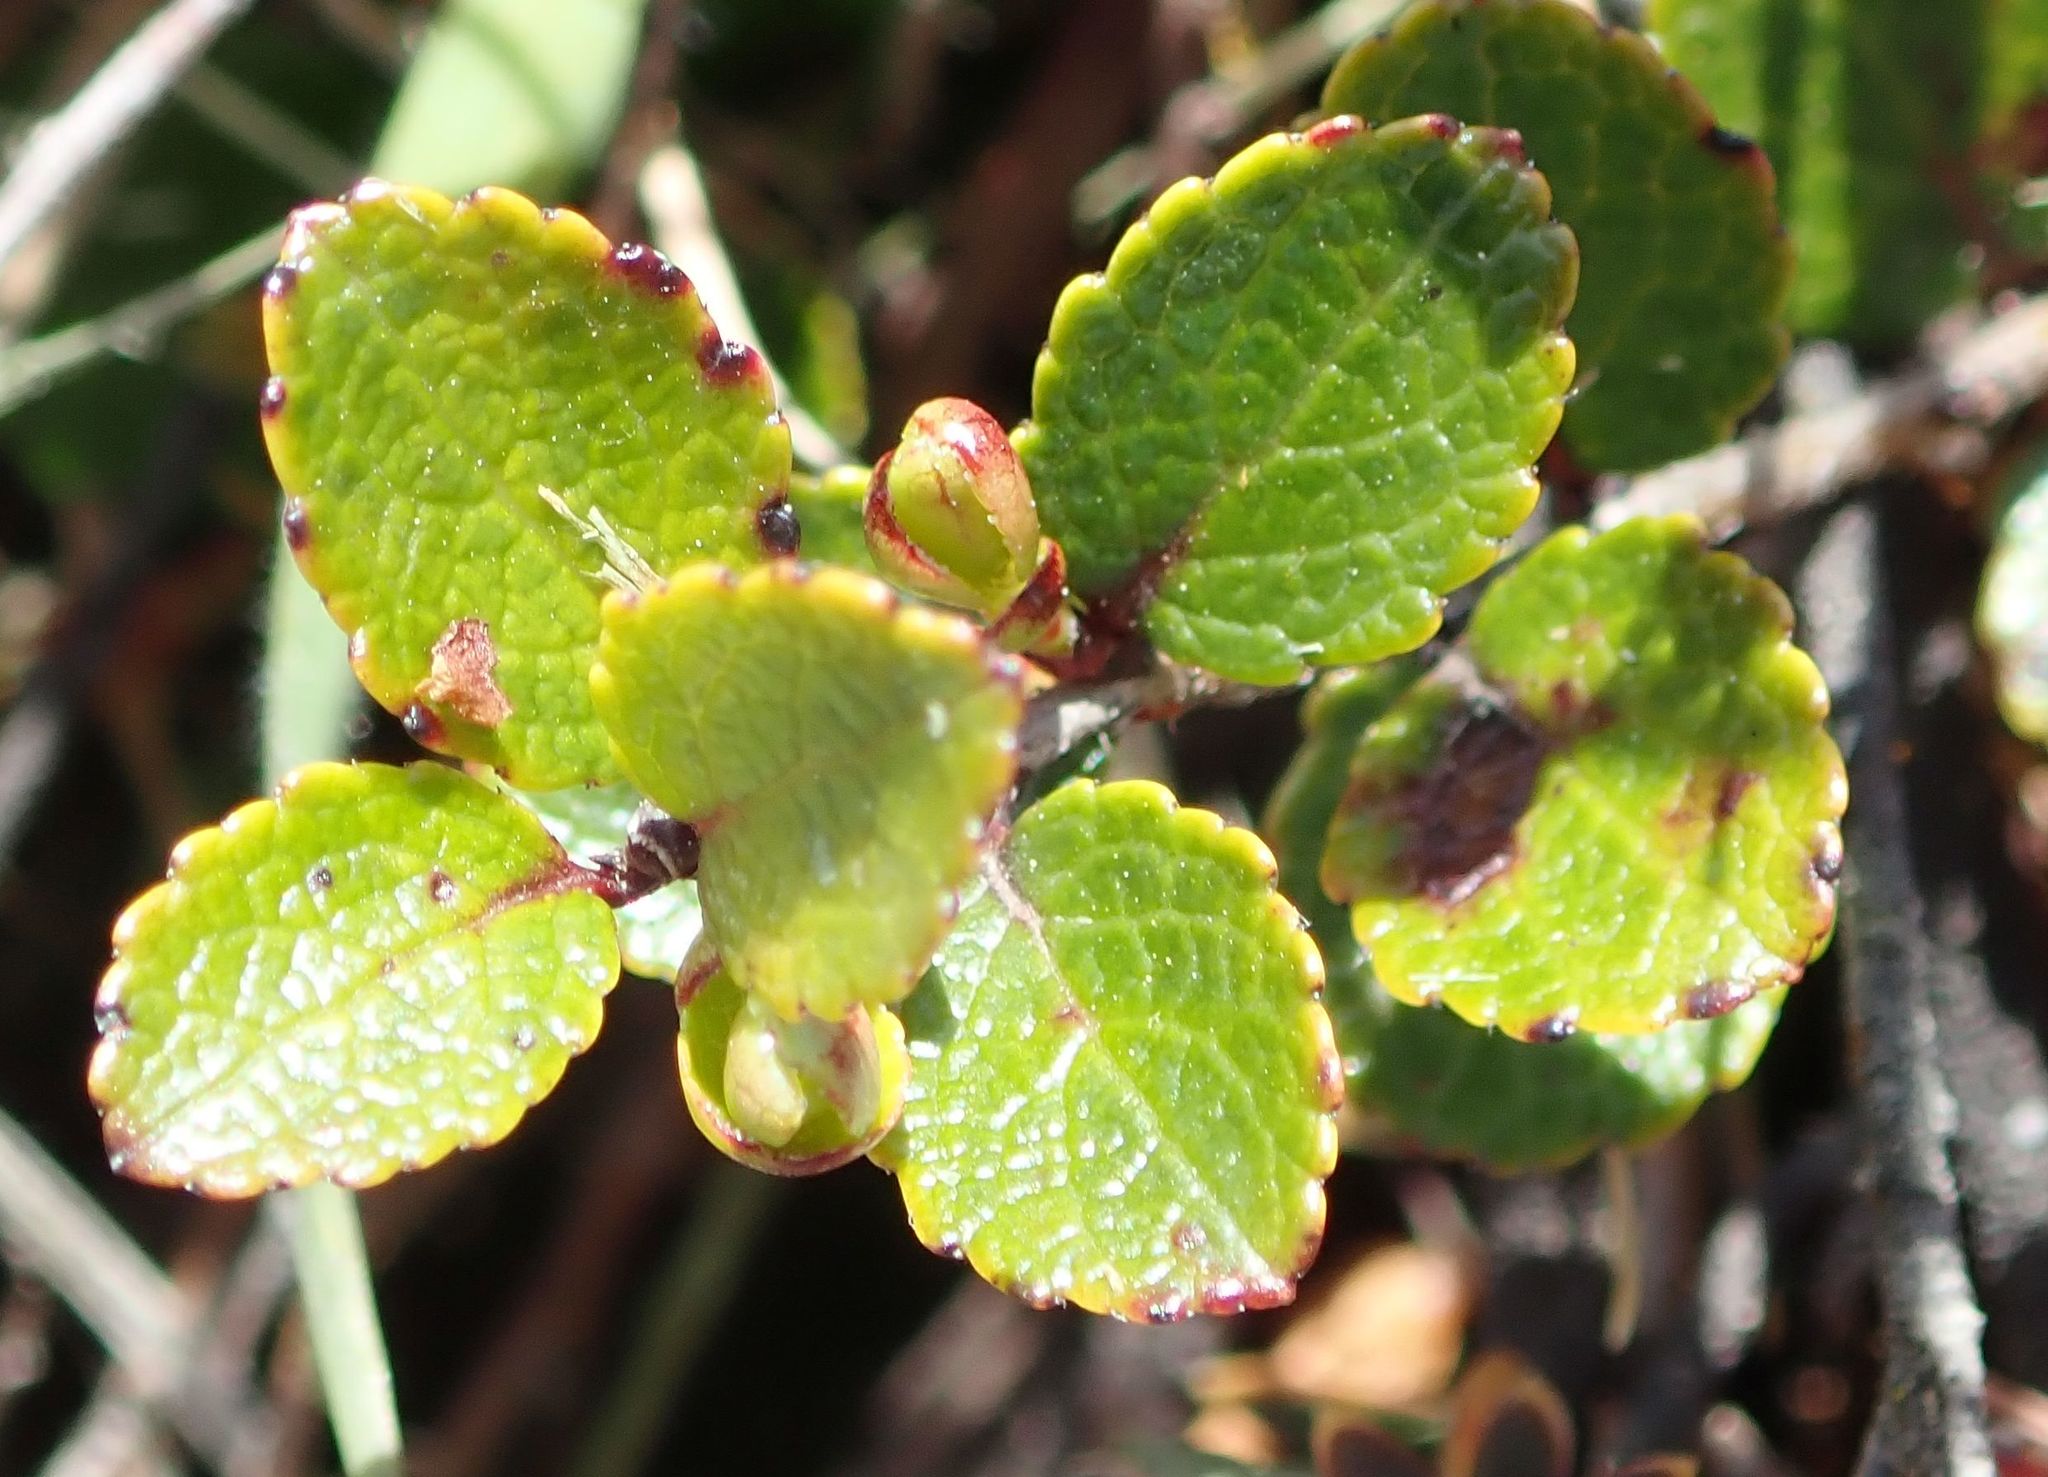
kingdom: Plantae
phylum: Tracheophyta
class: Magnoliopsida
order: Ericales
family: Ericaceae
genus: Gaultheria
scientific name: Gaultheria depressa
